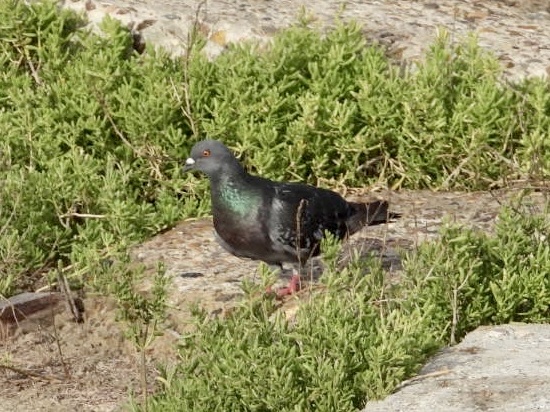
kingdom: Animalia
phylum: Chordata
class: Aves
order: Columbiformes
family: Columbidae
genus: Columba
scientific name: Columba livia
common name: Rock pigeon
